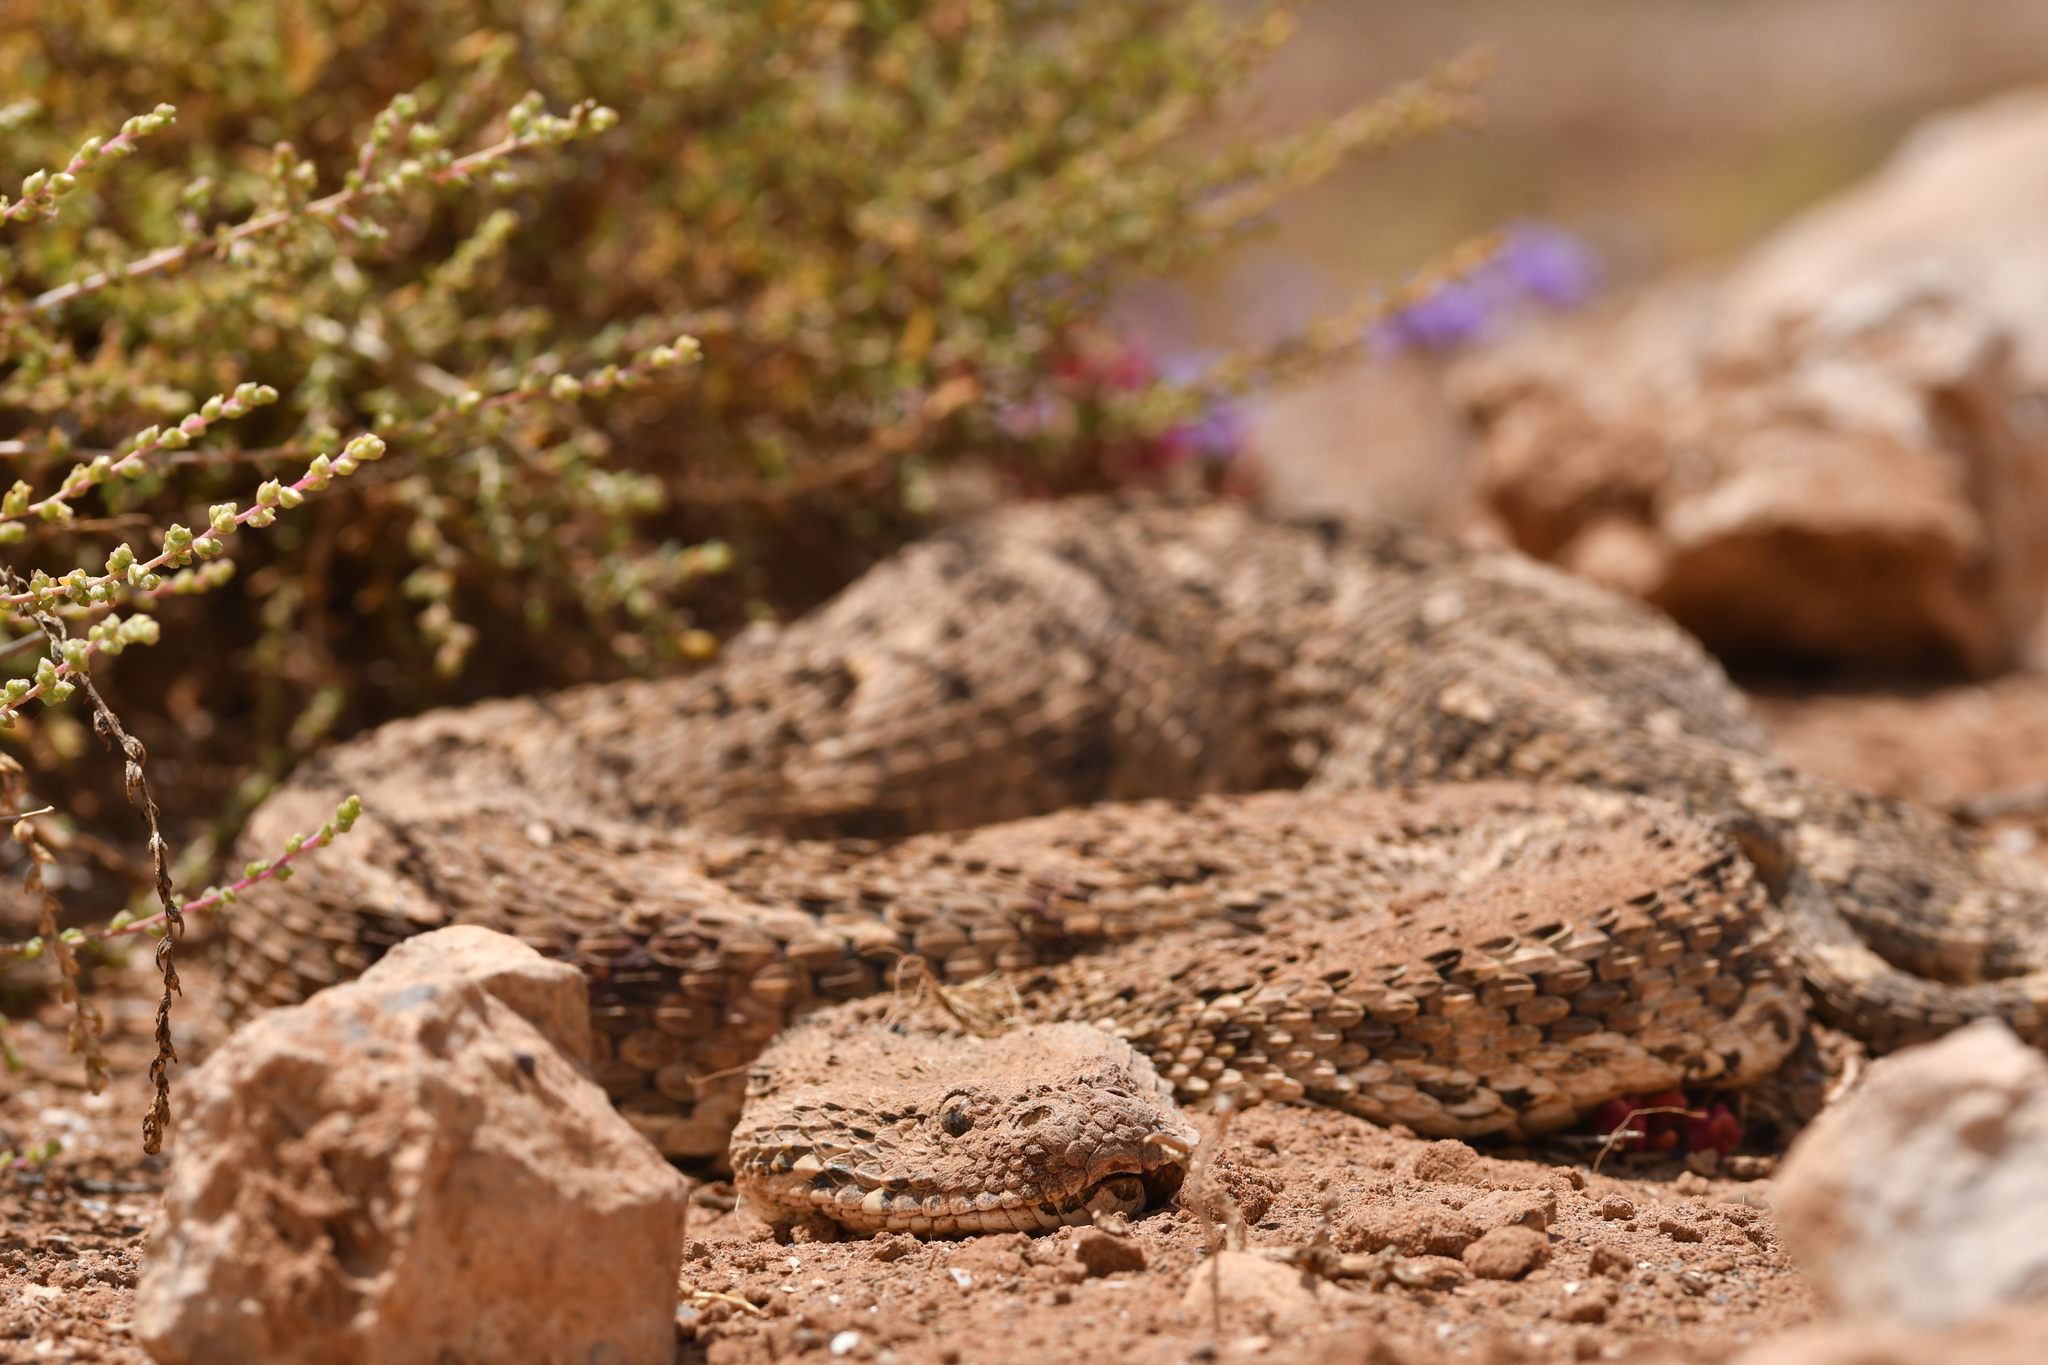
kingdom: Animalia
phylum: Chordata
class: Squamata
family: Viperidae
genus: Bitis
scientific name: Bitis arietans
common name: Puff adder
